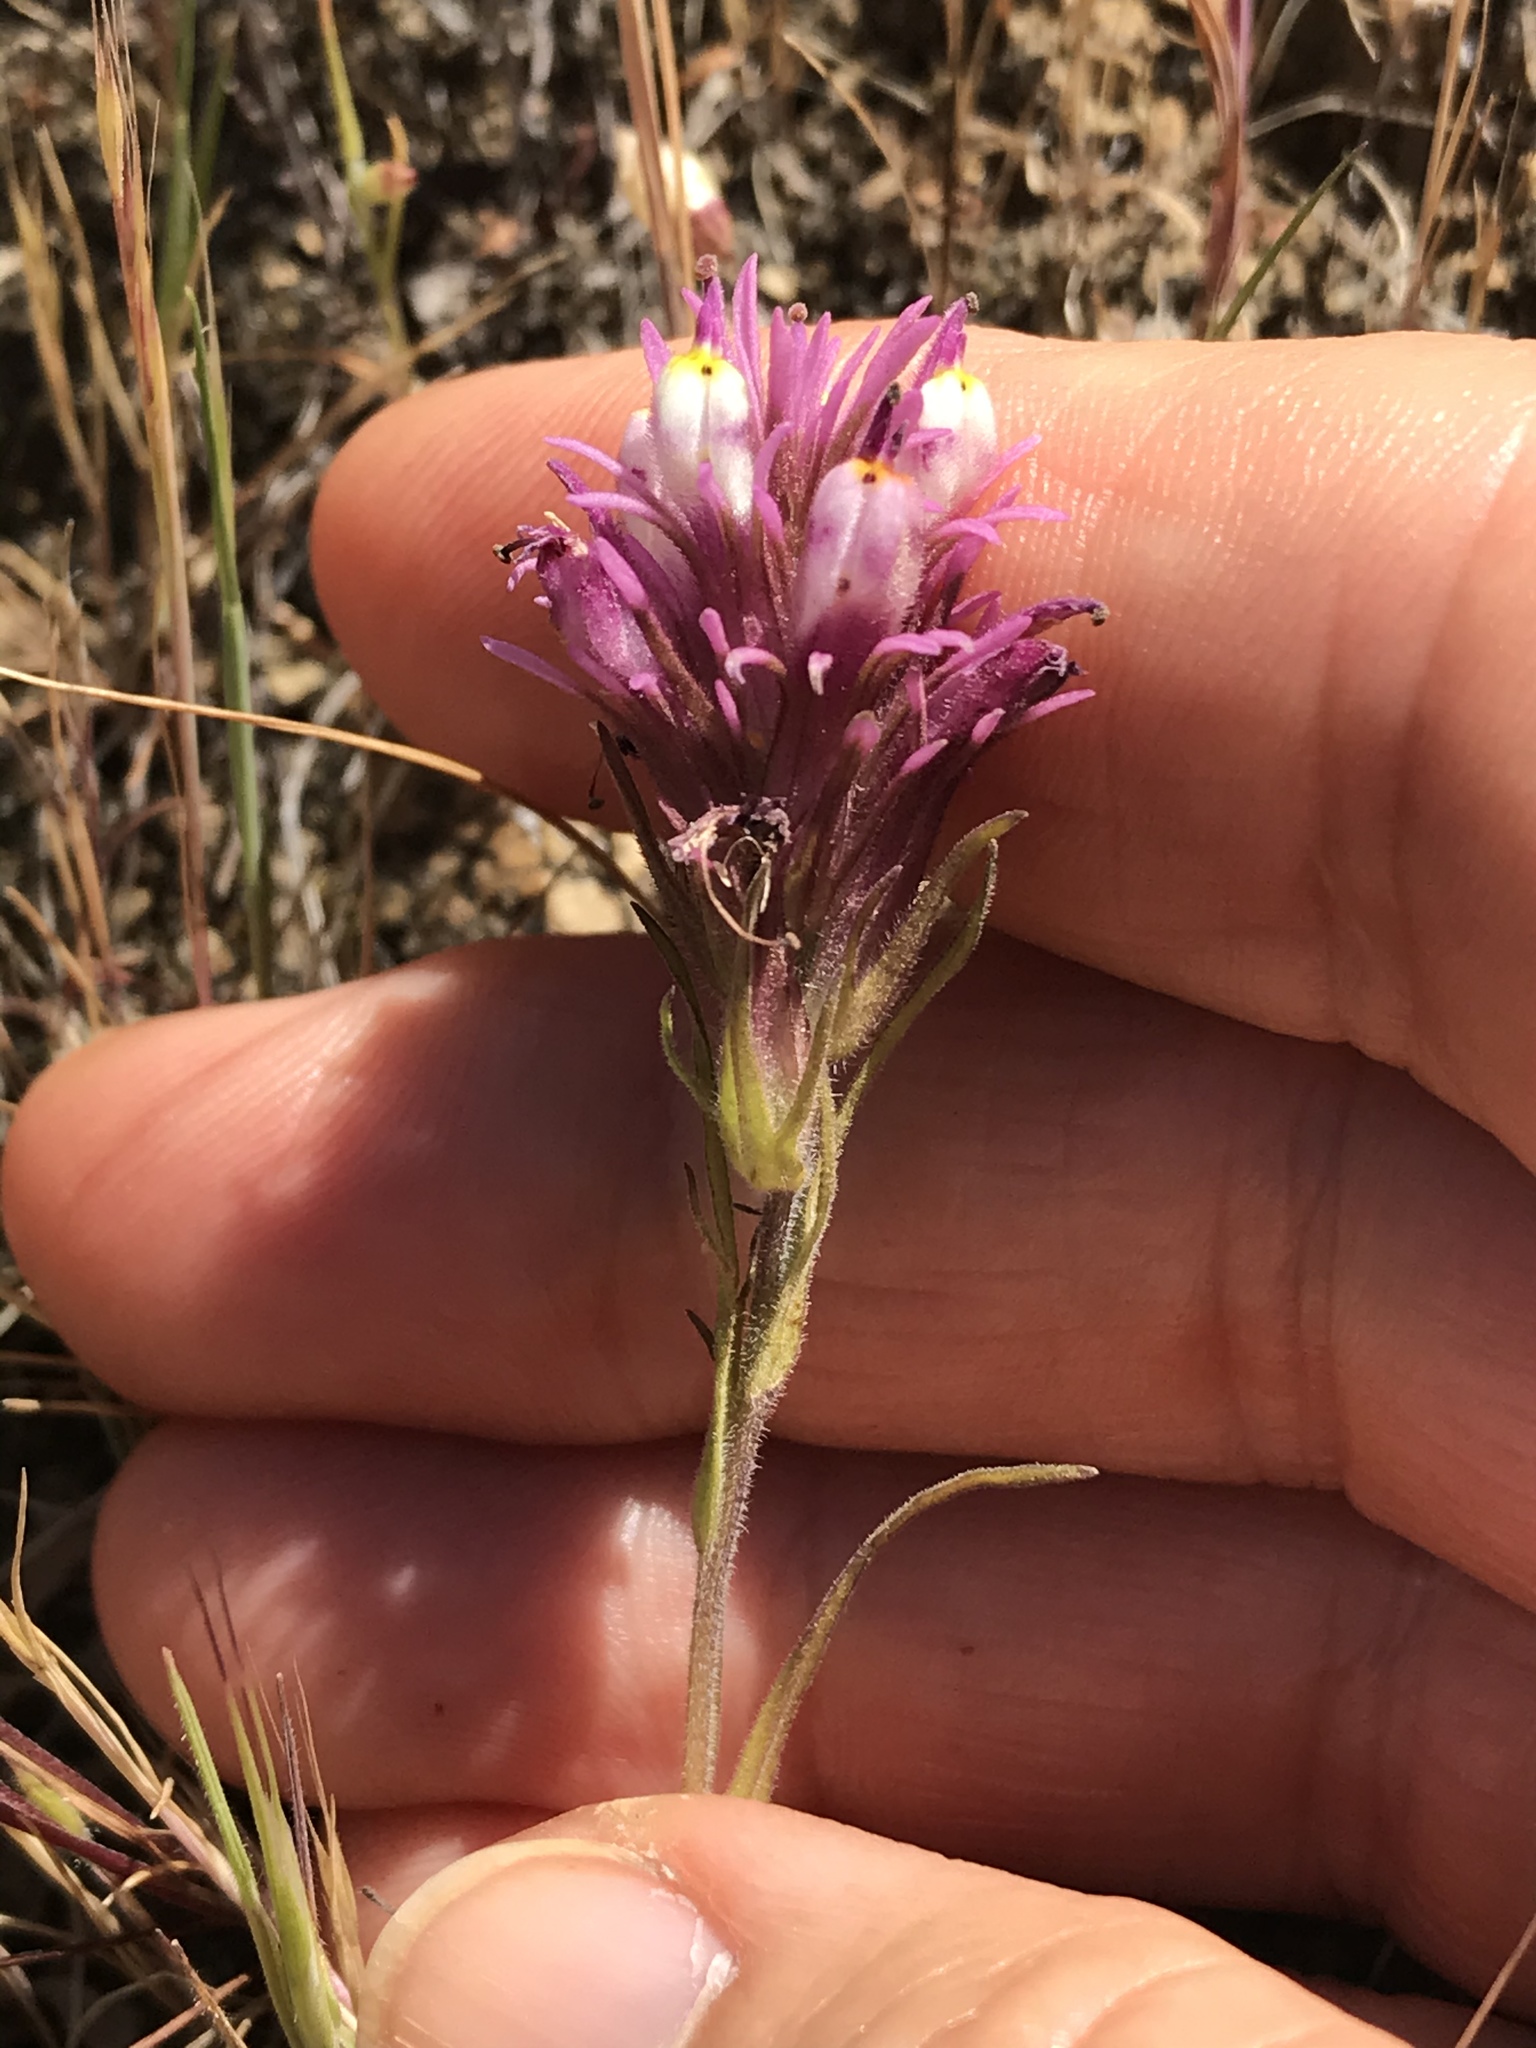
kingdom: Plantae
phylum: Tracheophyta
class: Magnoliopsida
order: Lamiales
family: Orobanchaceae
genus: Castilleja
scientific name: Castilleja densiflora
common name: Dense-flower indian paintbrush
